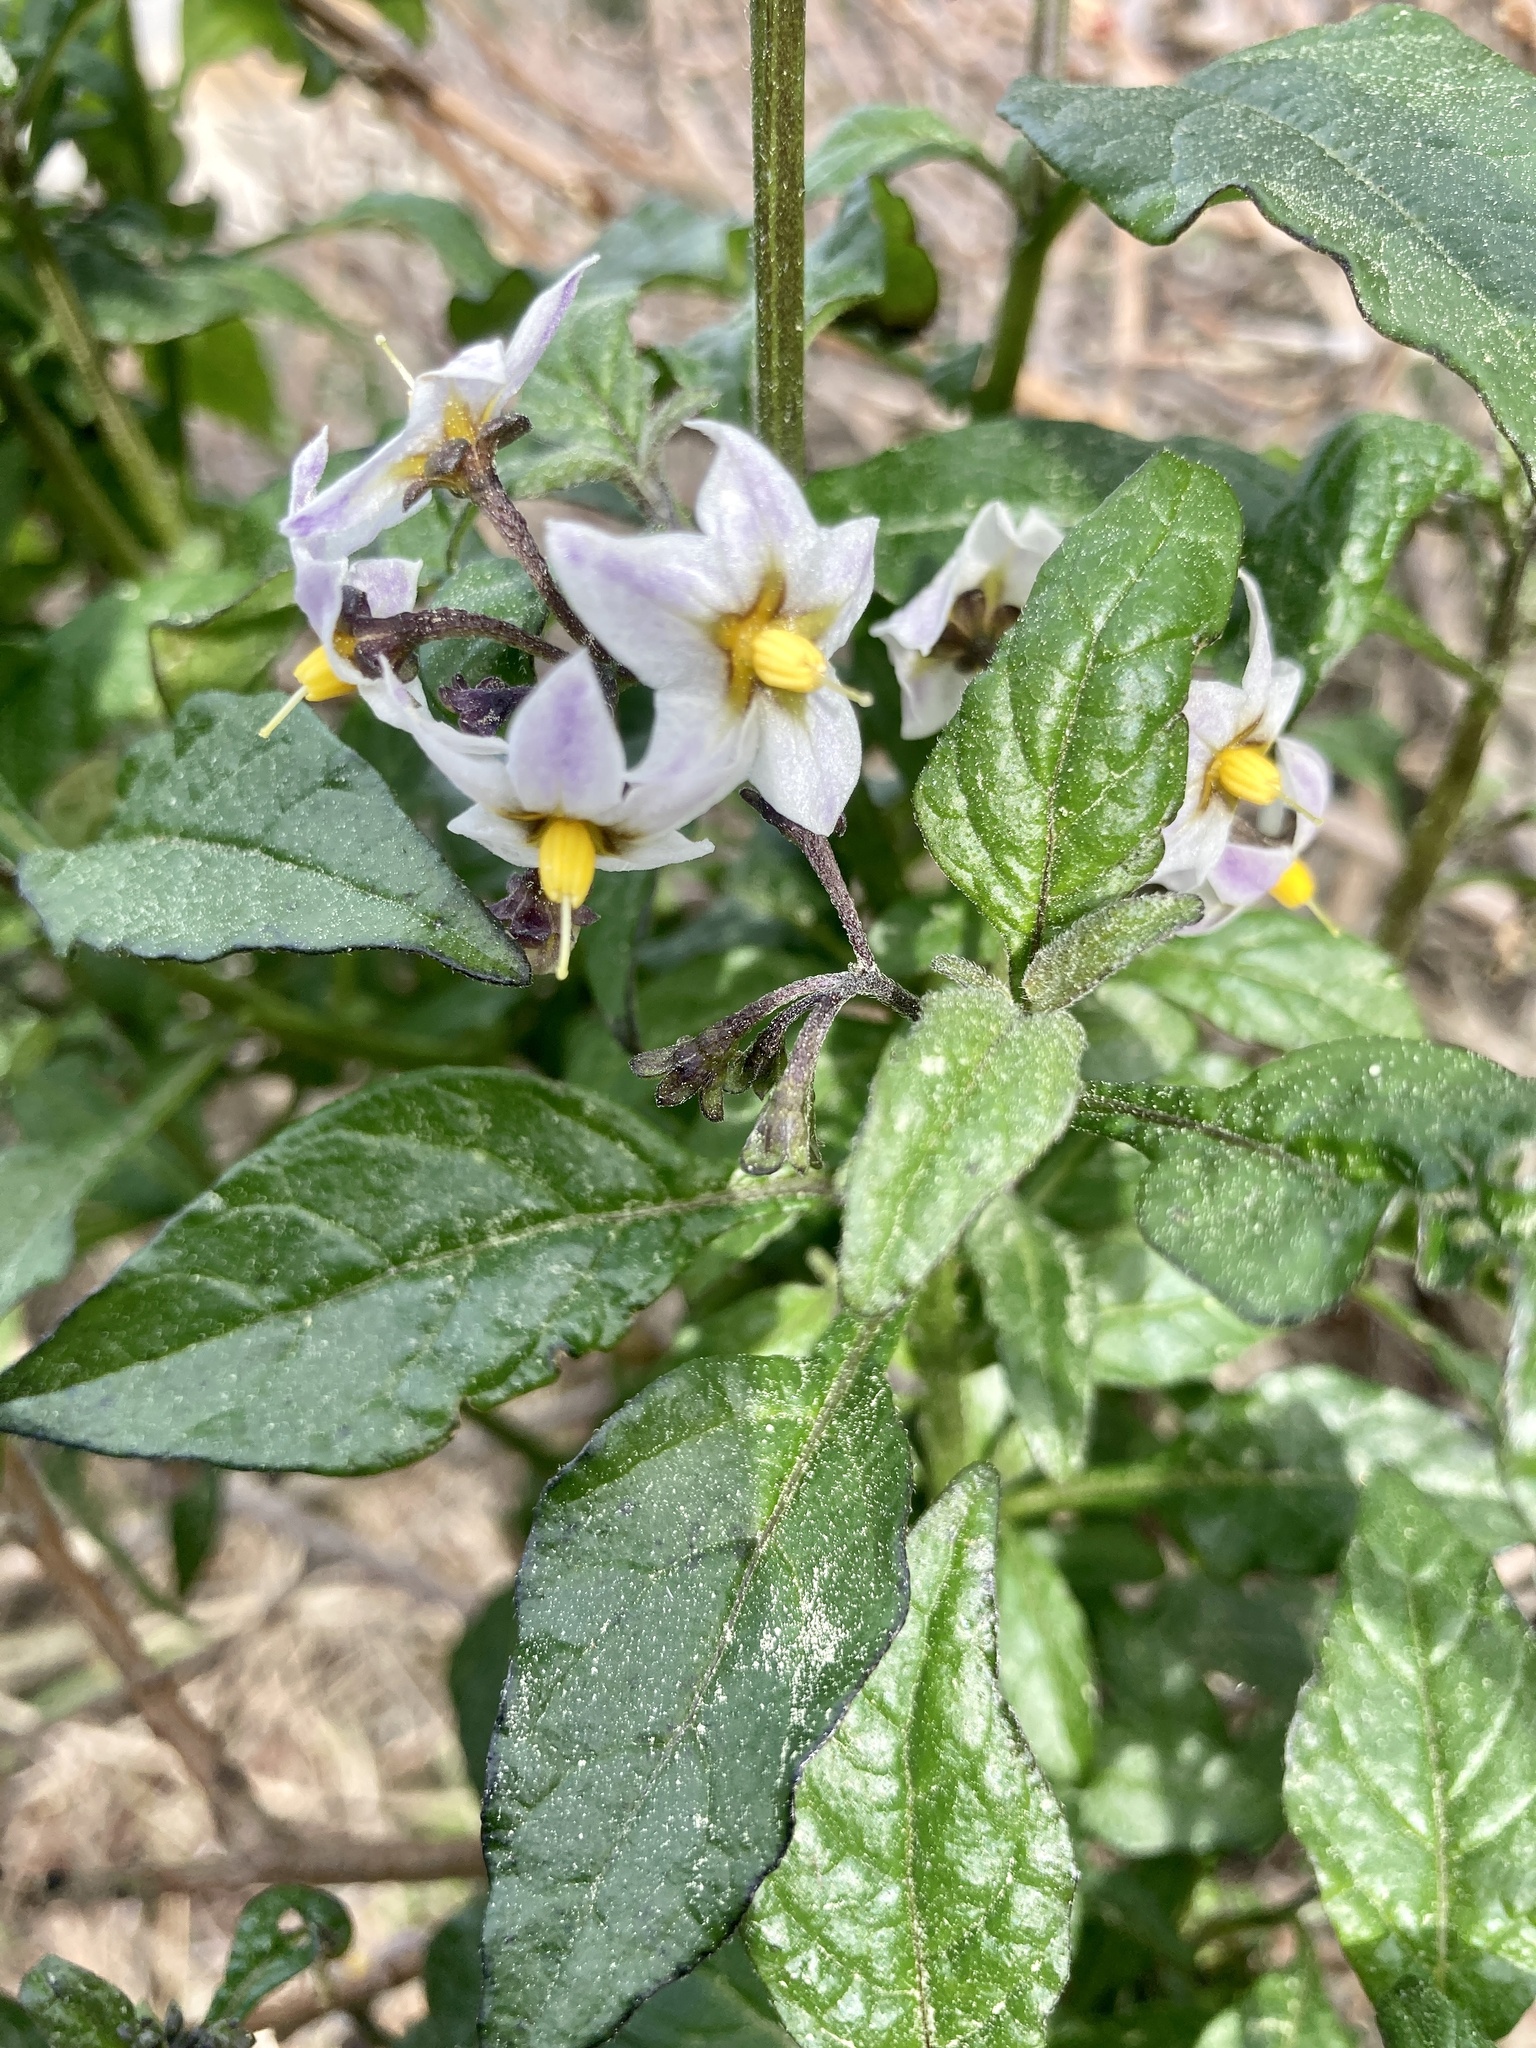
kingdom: Plantae
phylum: Tracheophyta
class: Magnoliopsida
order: Solanales
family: Solanaceae
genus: Solanum
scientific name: Solanum douglasii
